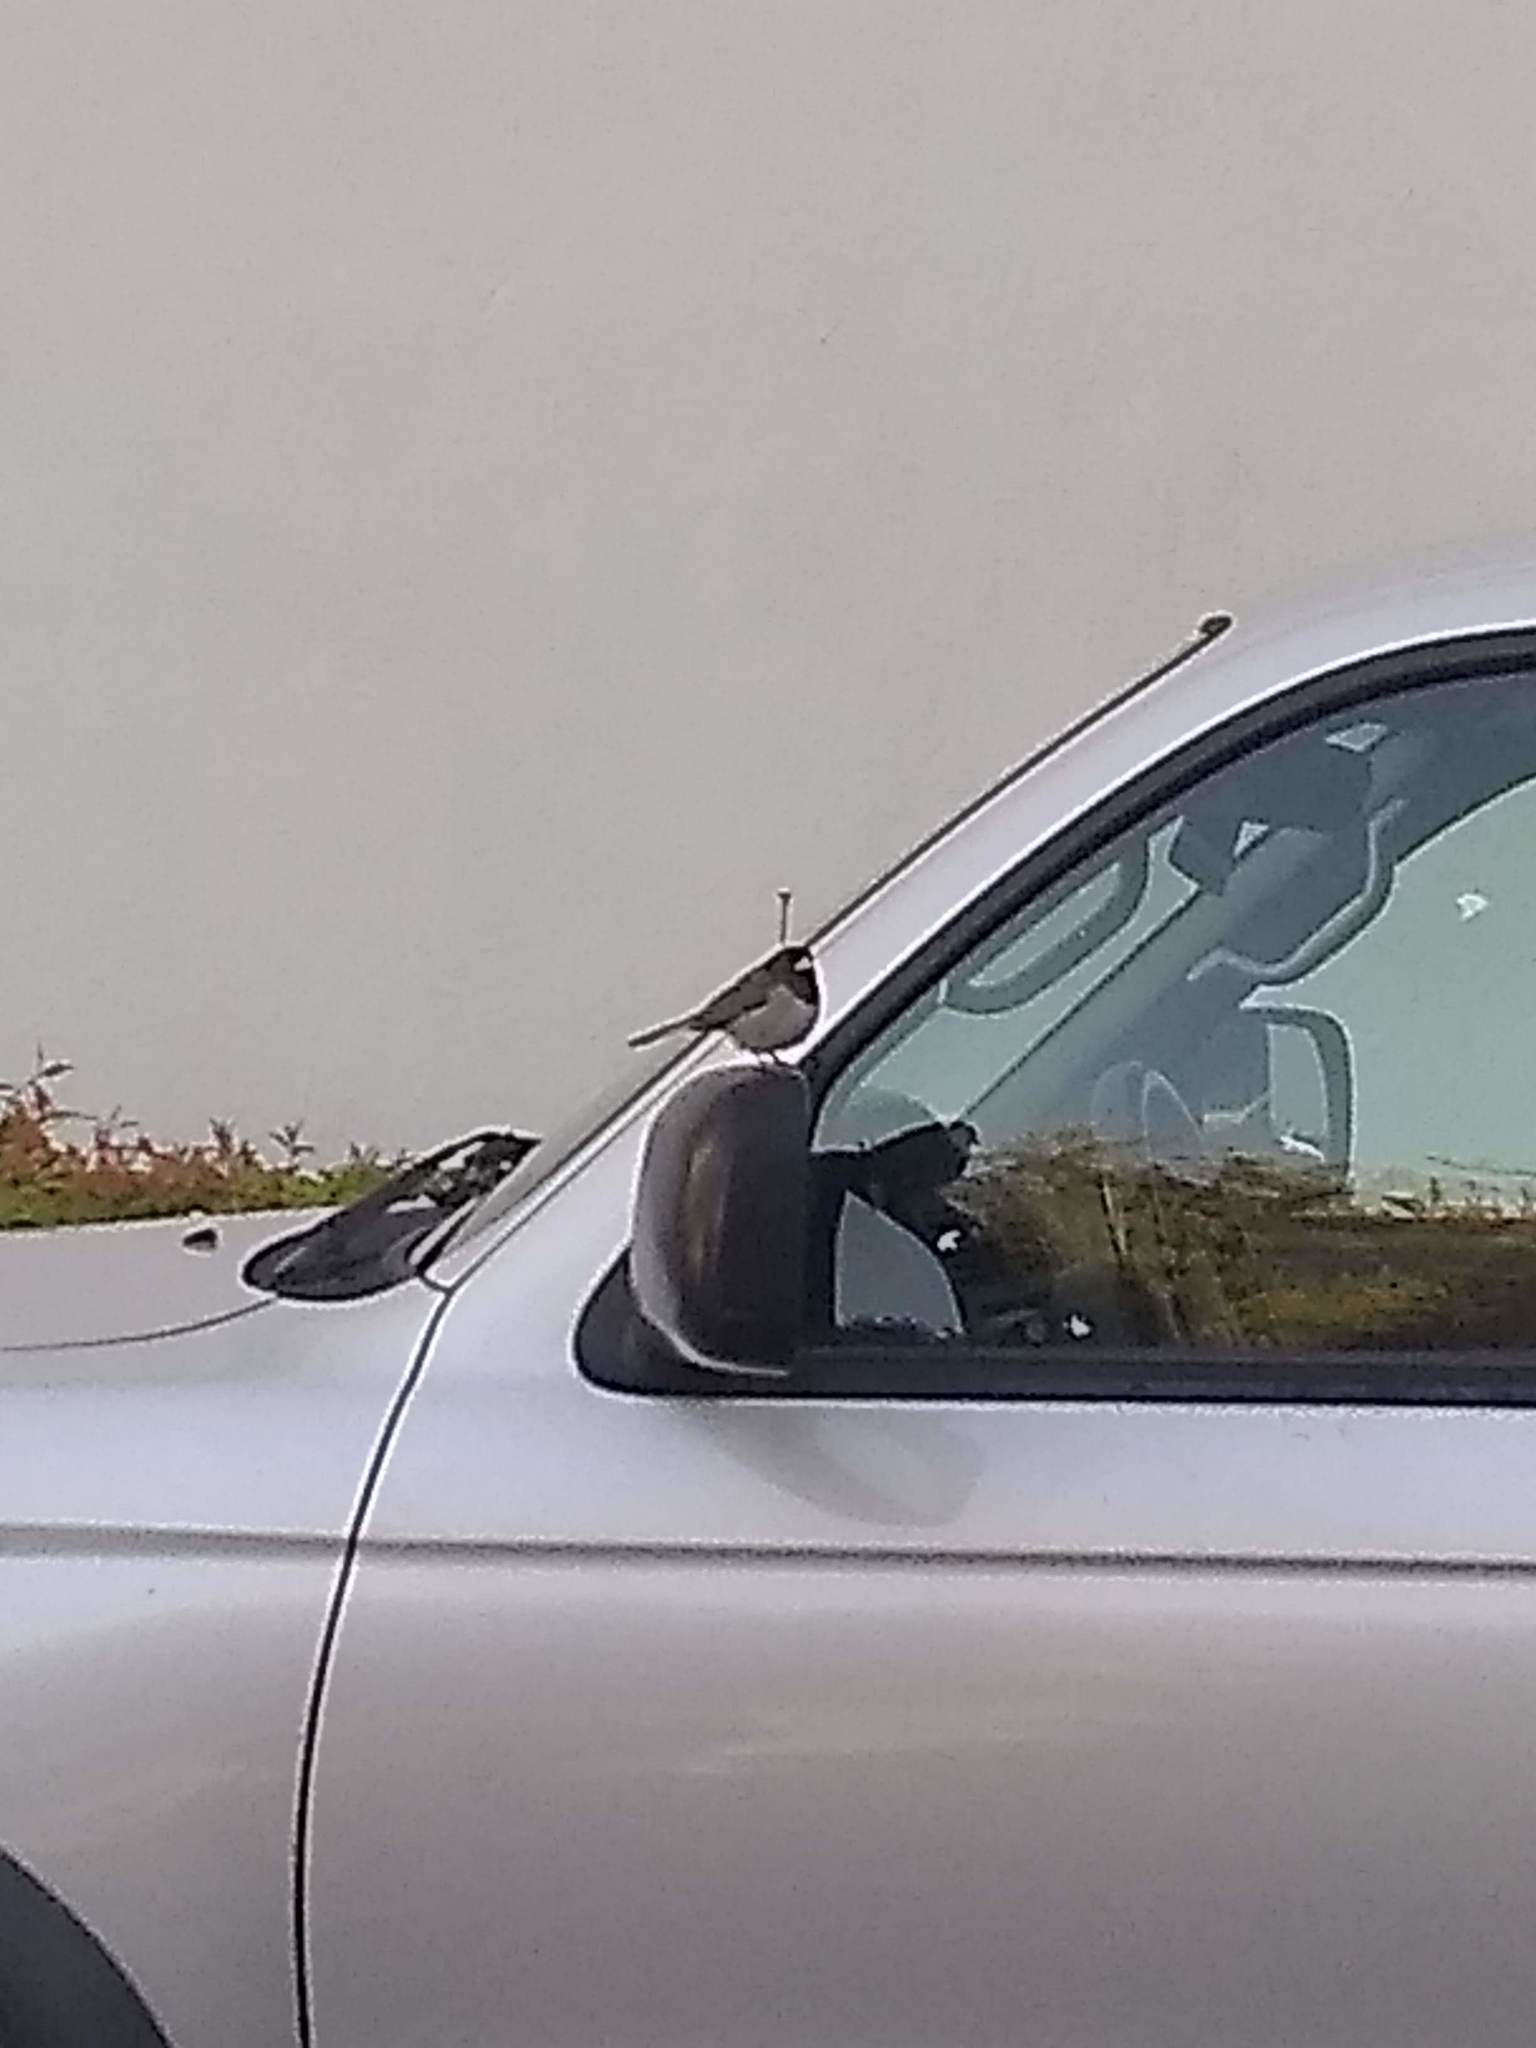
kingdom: Animalia
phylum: Chordata
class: Aves
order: Passeriformes
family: Passerellidae
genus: Junco
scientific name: Junco hyemalis
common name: Dark-eyed junco
